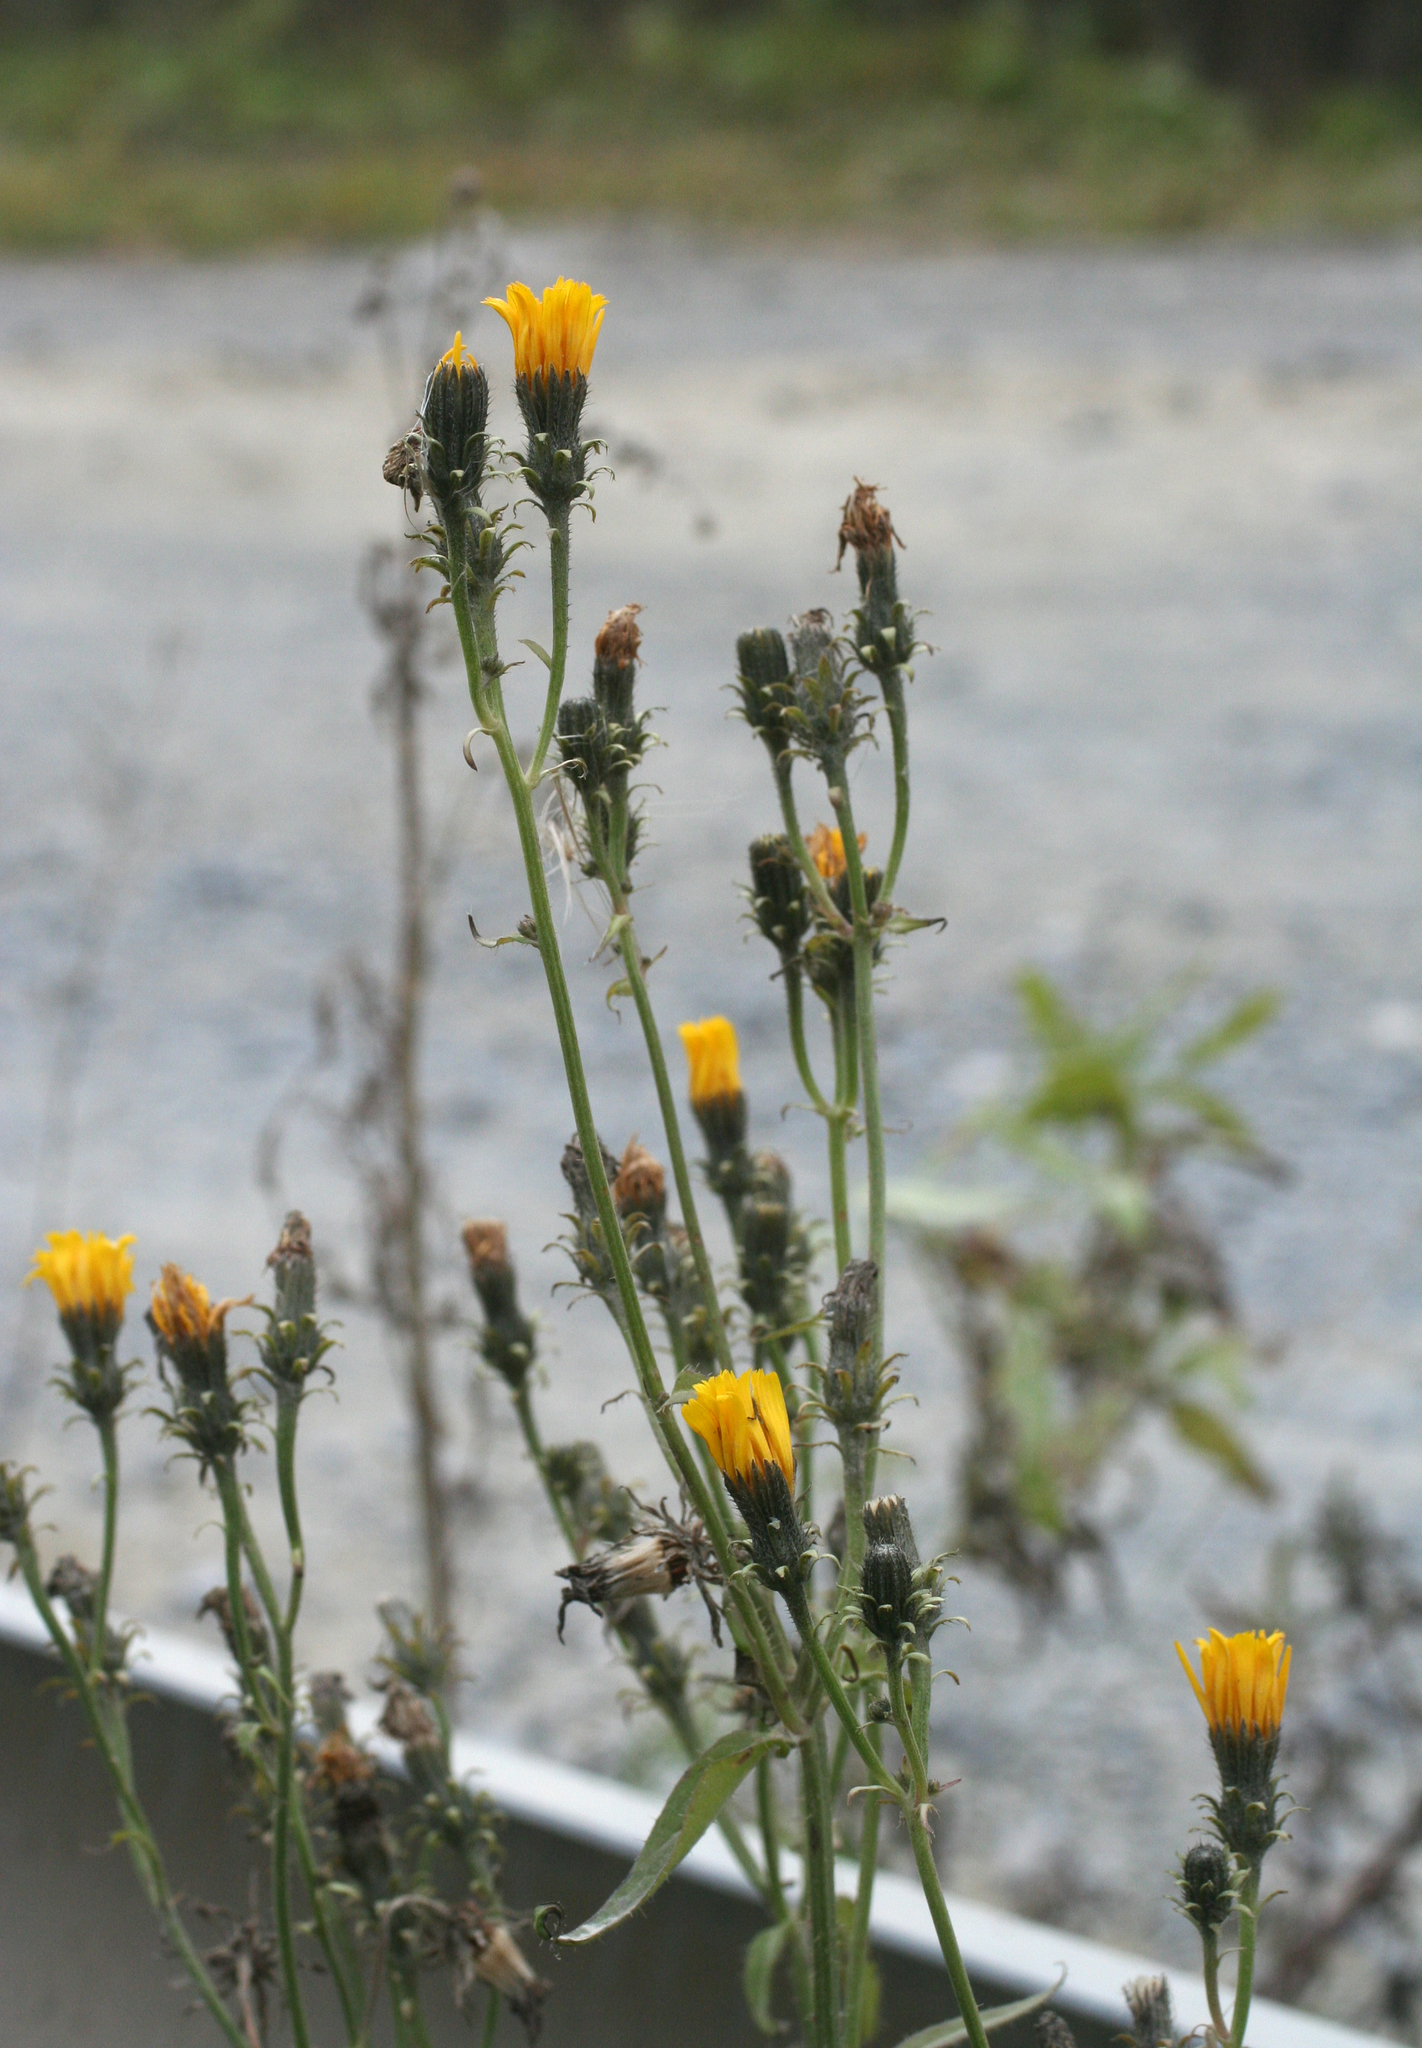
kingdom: Plantae
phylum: Tracheophyta
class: Magnoliopsida
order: Asterales
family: Asteraceae
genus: Picris
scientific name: Picris hieracioides
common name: Hawkweed oxtongue
